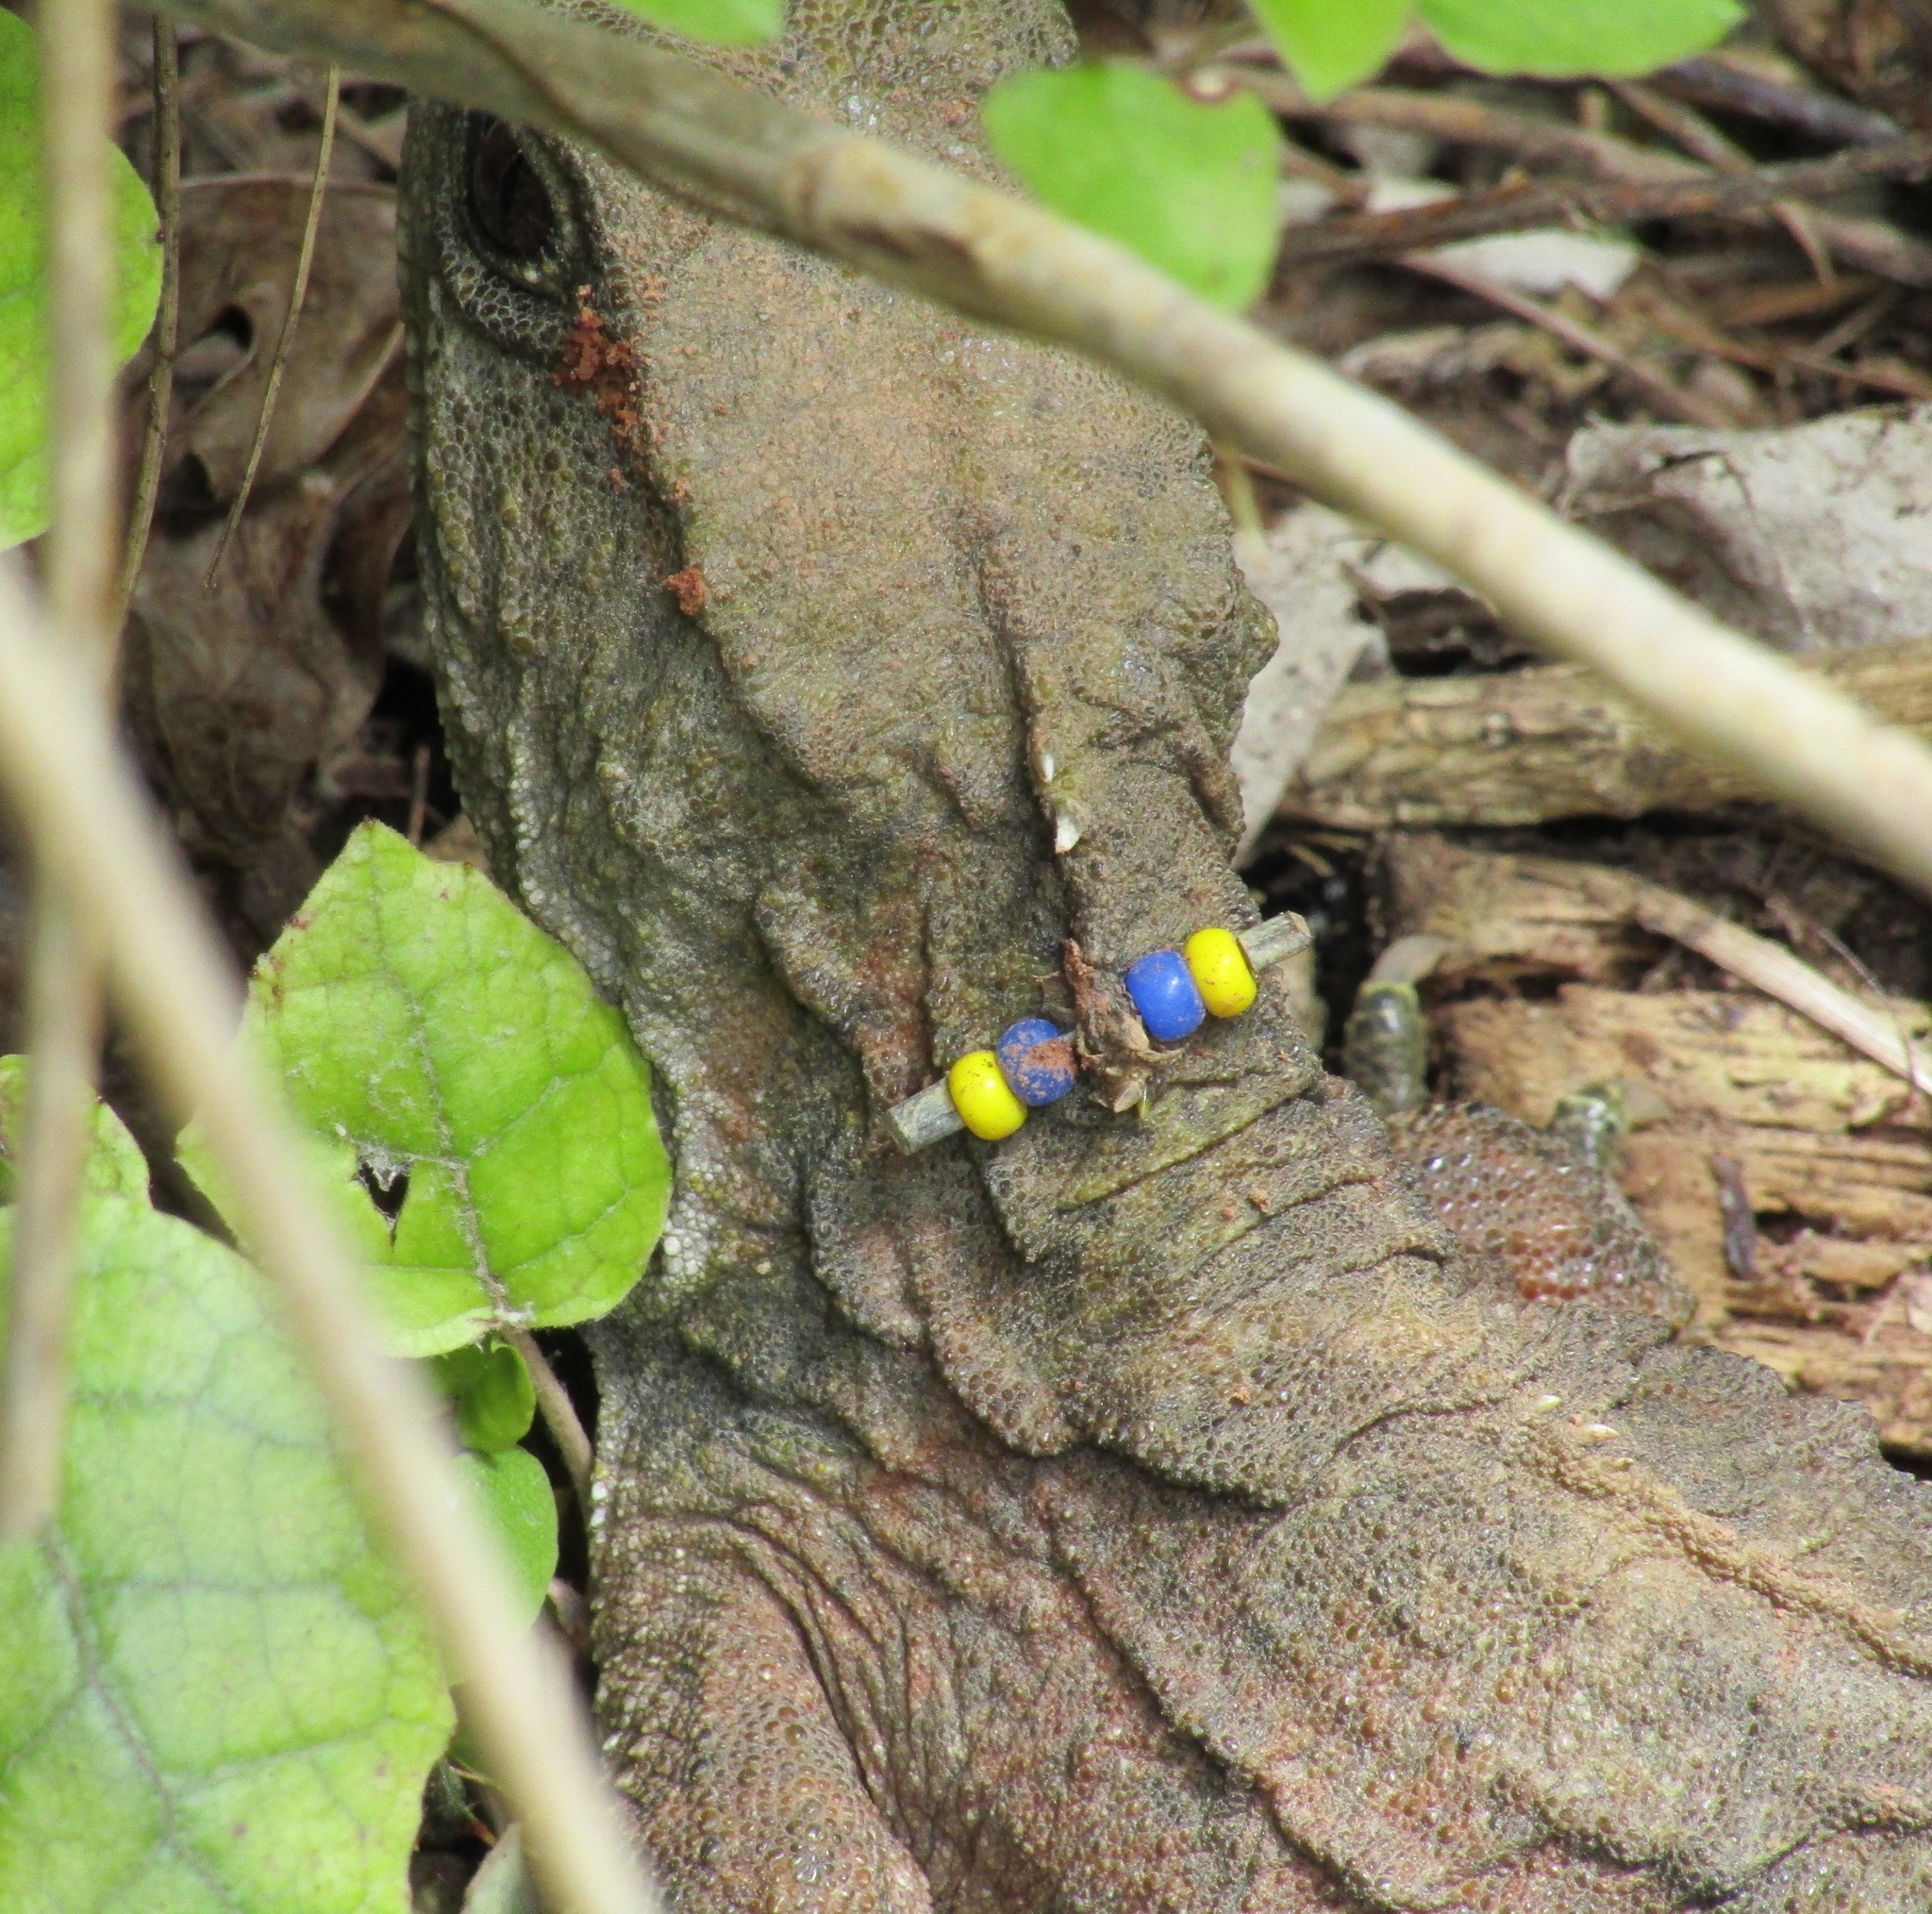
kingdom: Animalia
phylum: Chordata
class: Sphenodontia
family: Sphenodontidae
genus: Sphenodon
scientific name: Sphenodon punctatus
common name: Tuatara
